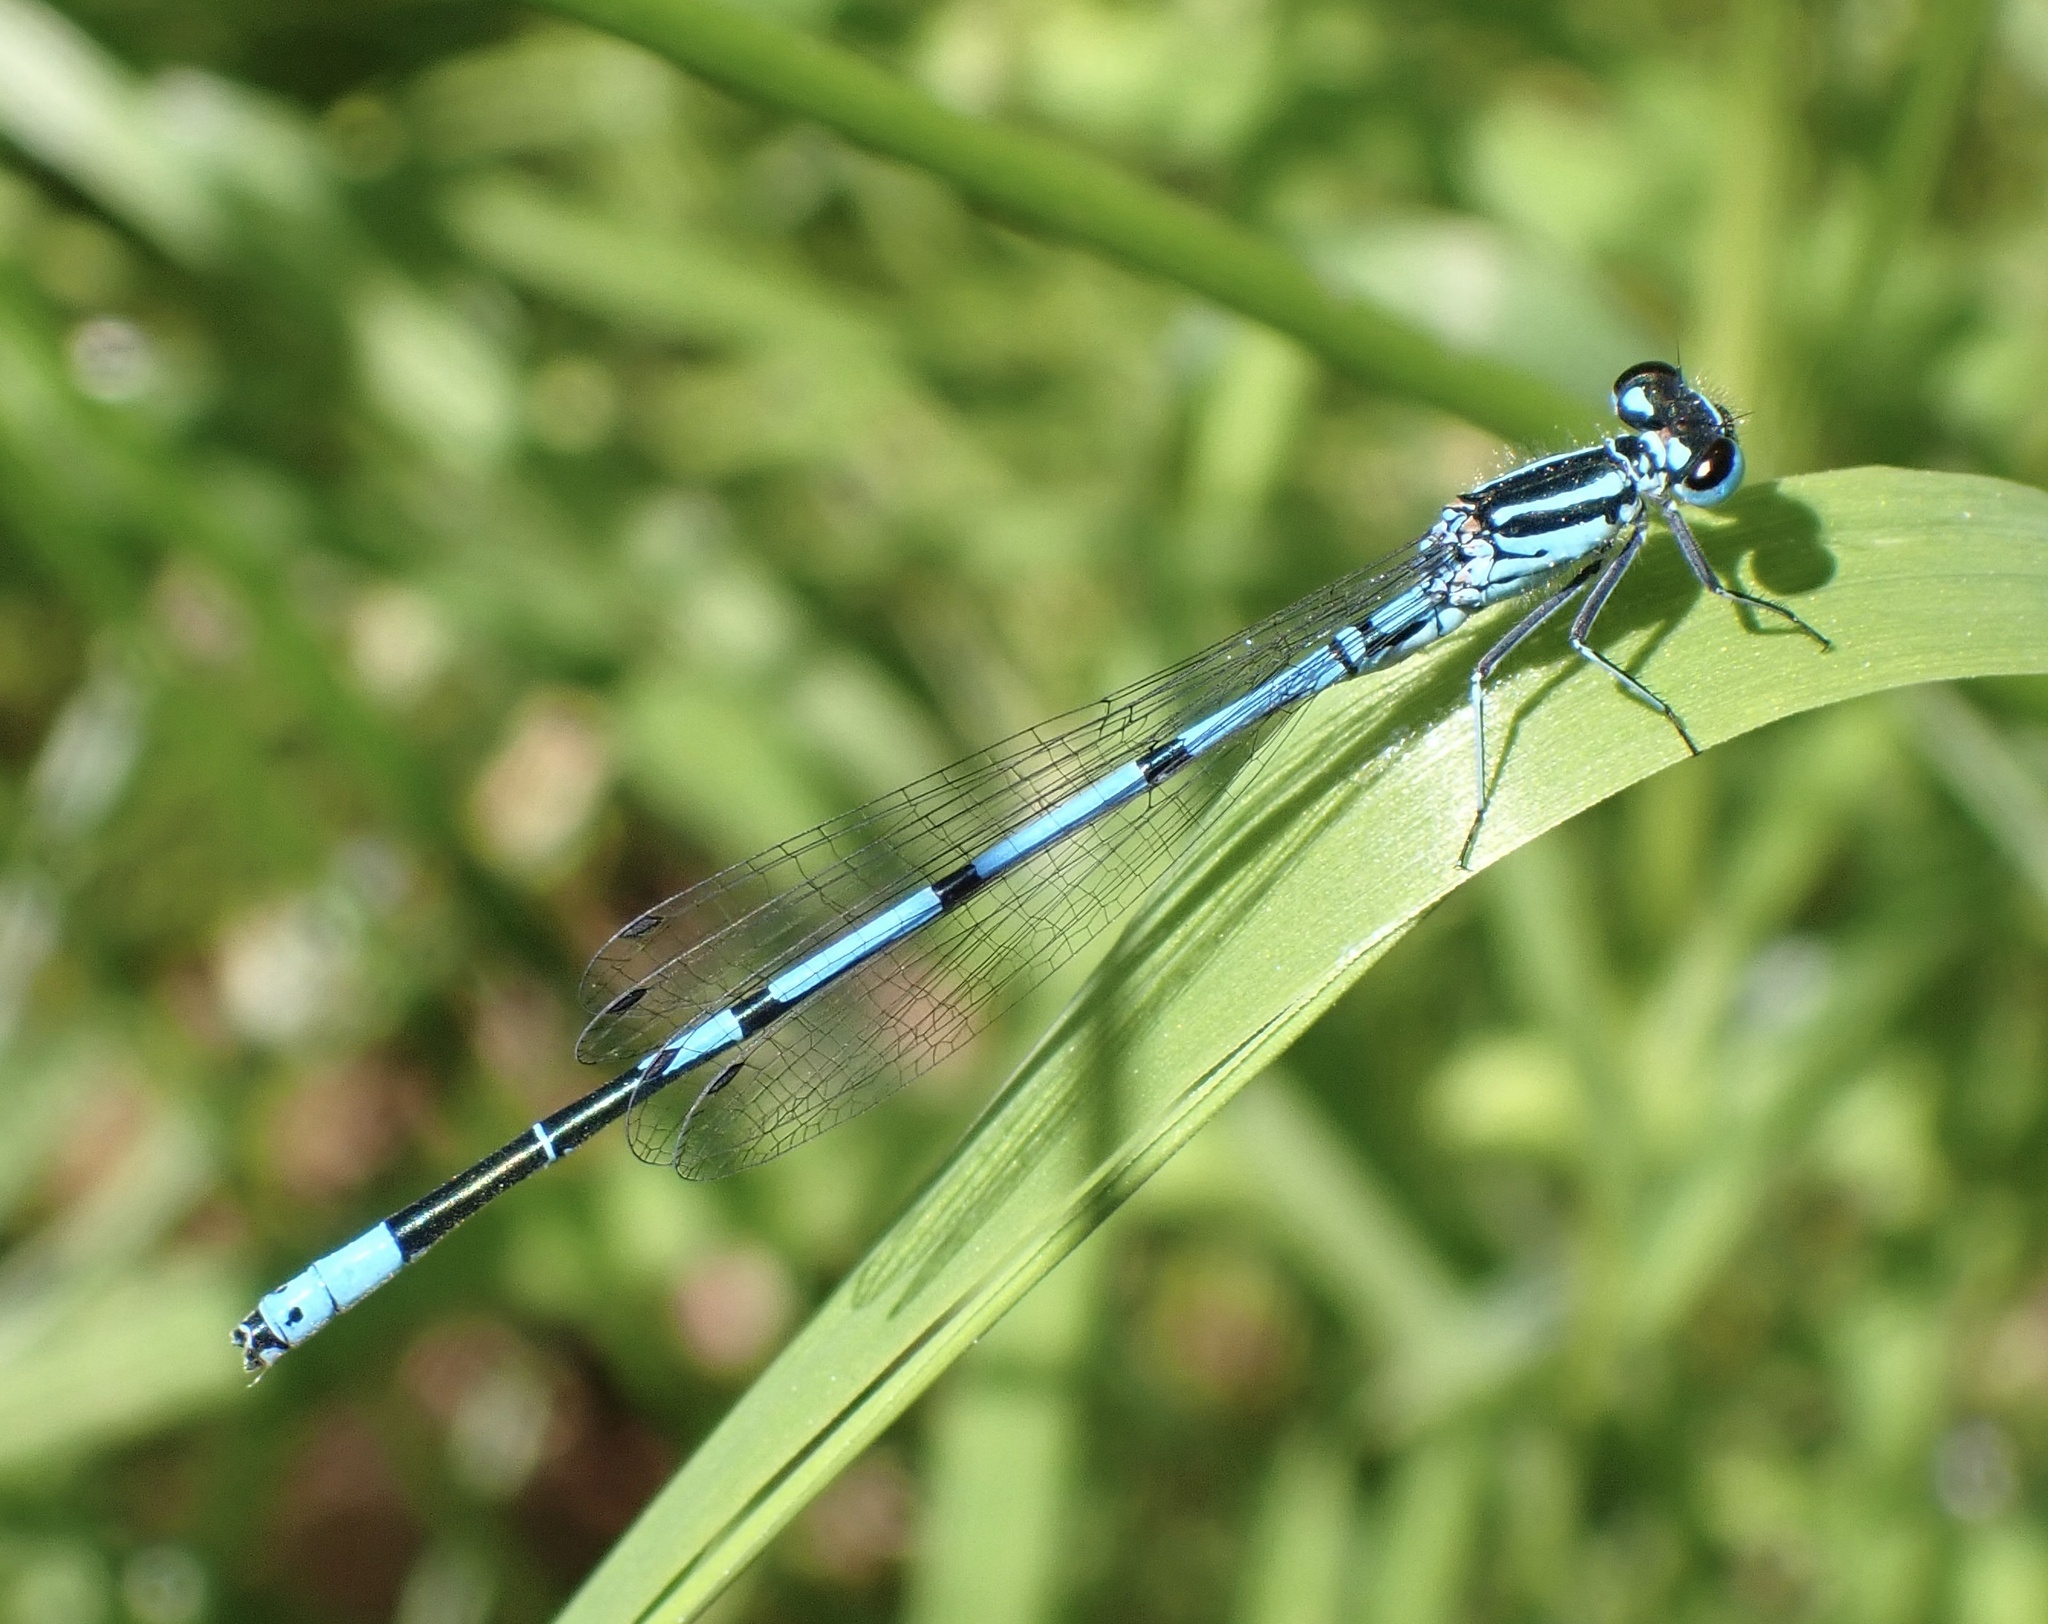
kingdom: Animalia
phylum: Arthropoda
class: Insecta
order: Odonata
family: Coenagrionidae
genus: Coenagrion
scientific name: Coenagrion puella
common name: Azure damselfly
